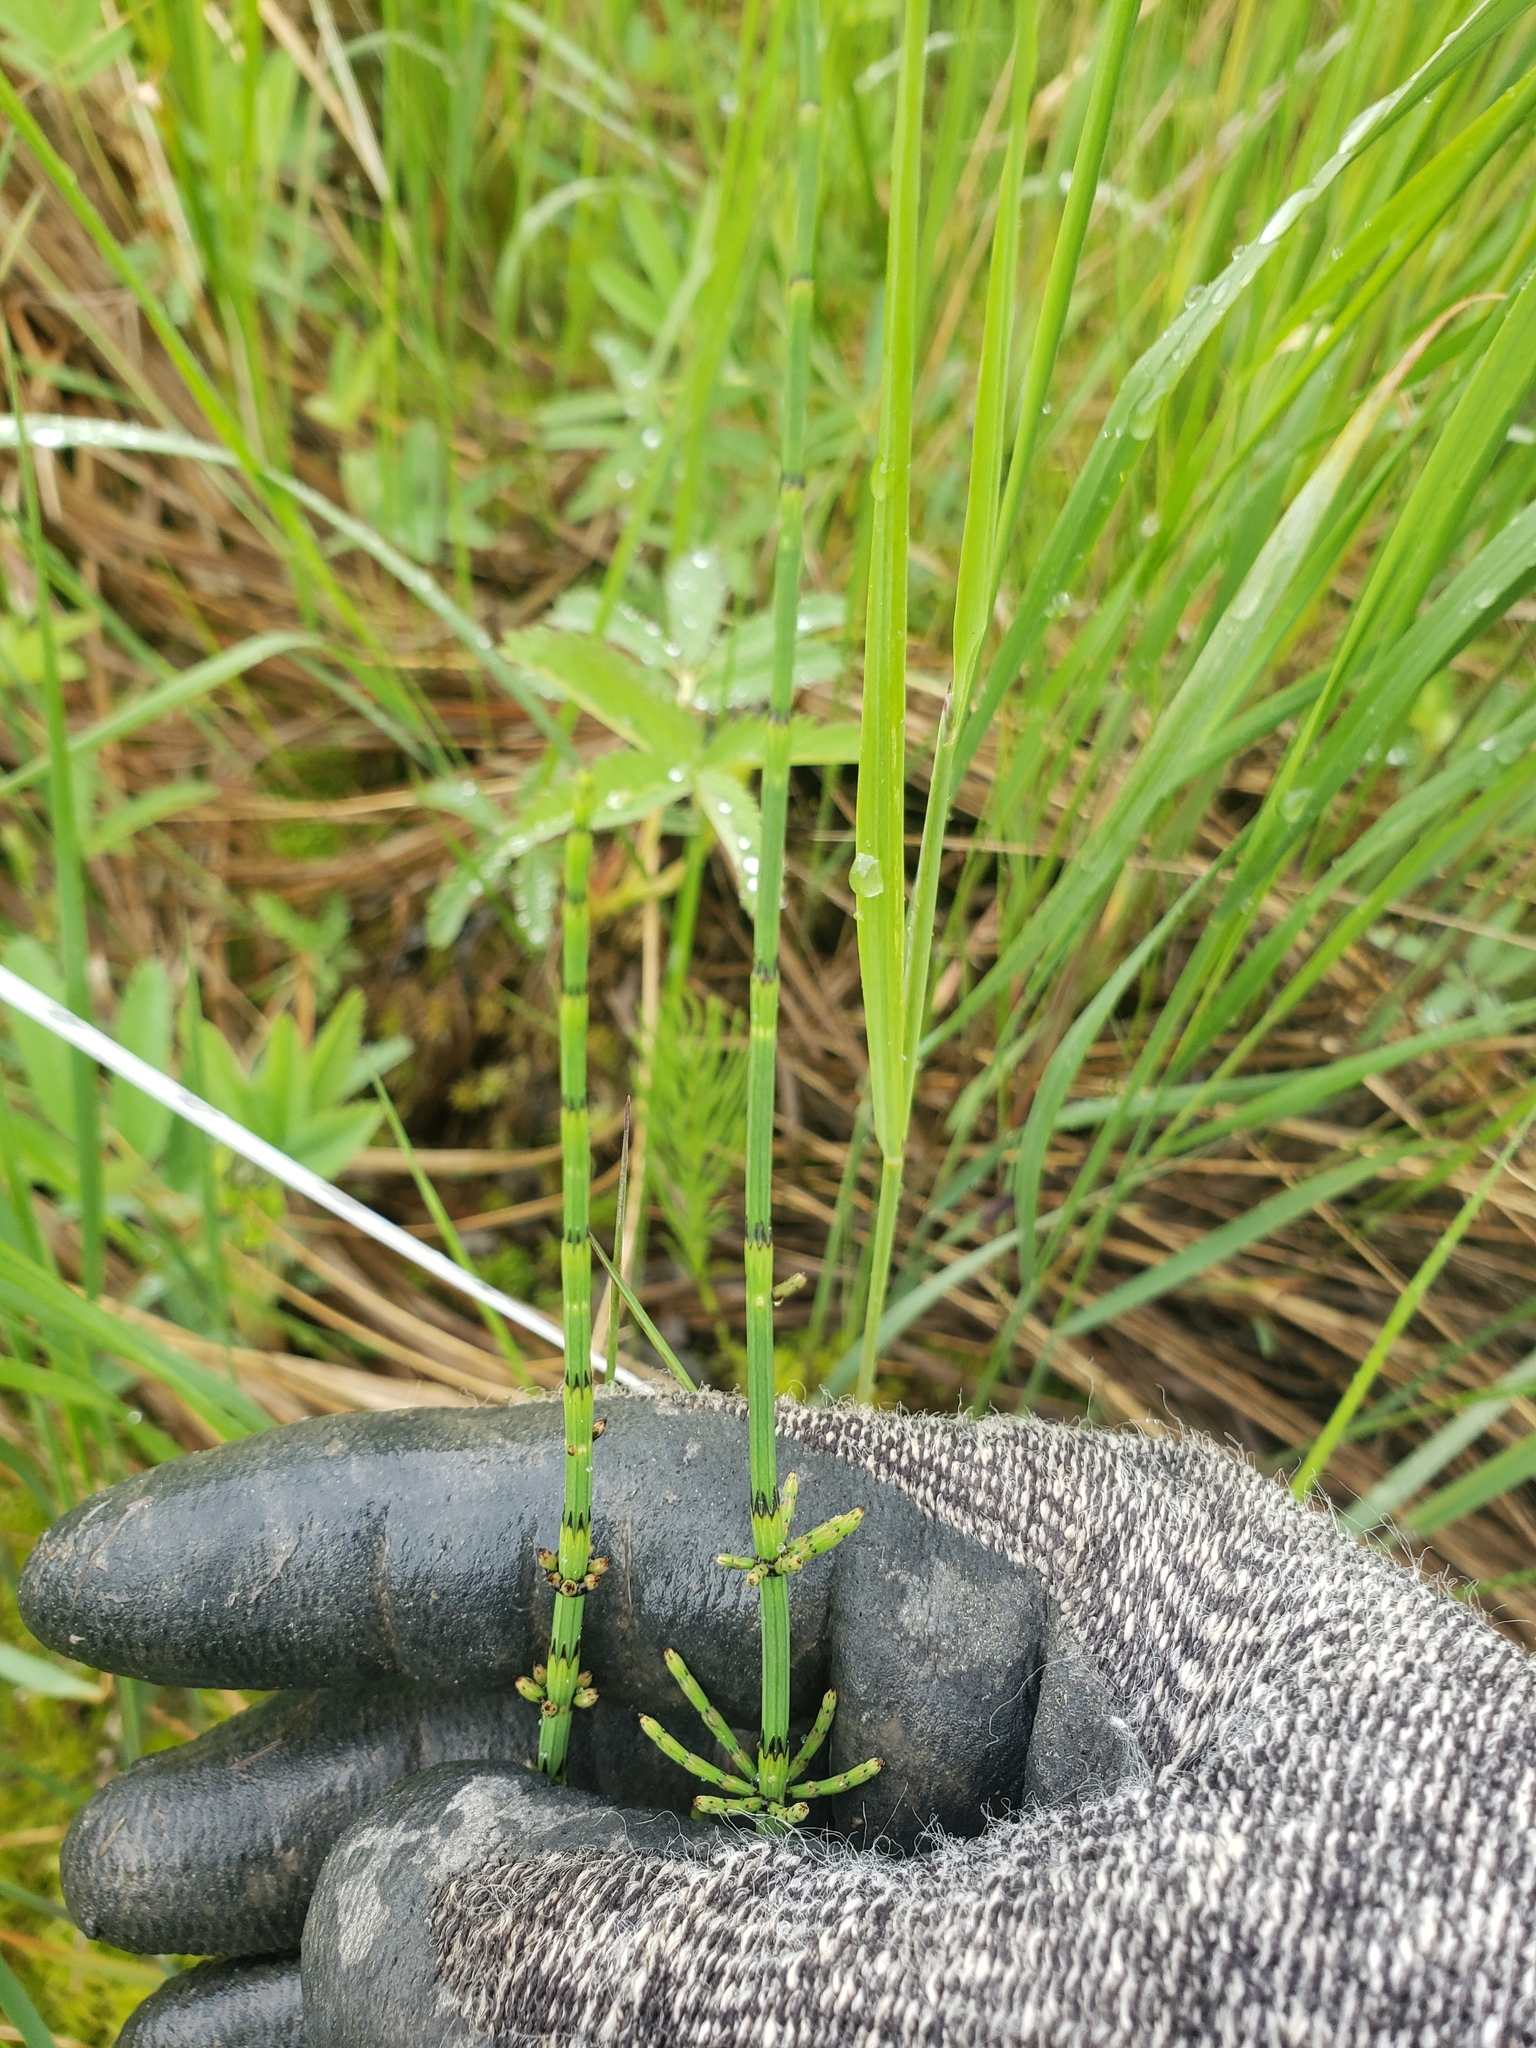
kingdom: Plantae
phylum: Tracheophyta
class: Polypodiopsida
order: Equisetales
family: Equisetaceae
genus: Equisetum
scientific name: Equisetum palustre
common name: Marsh horsetail
